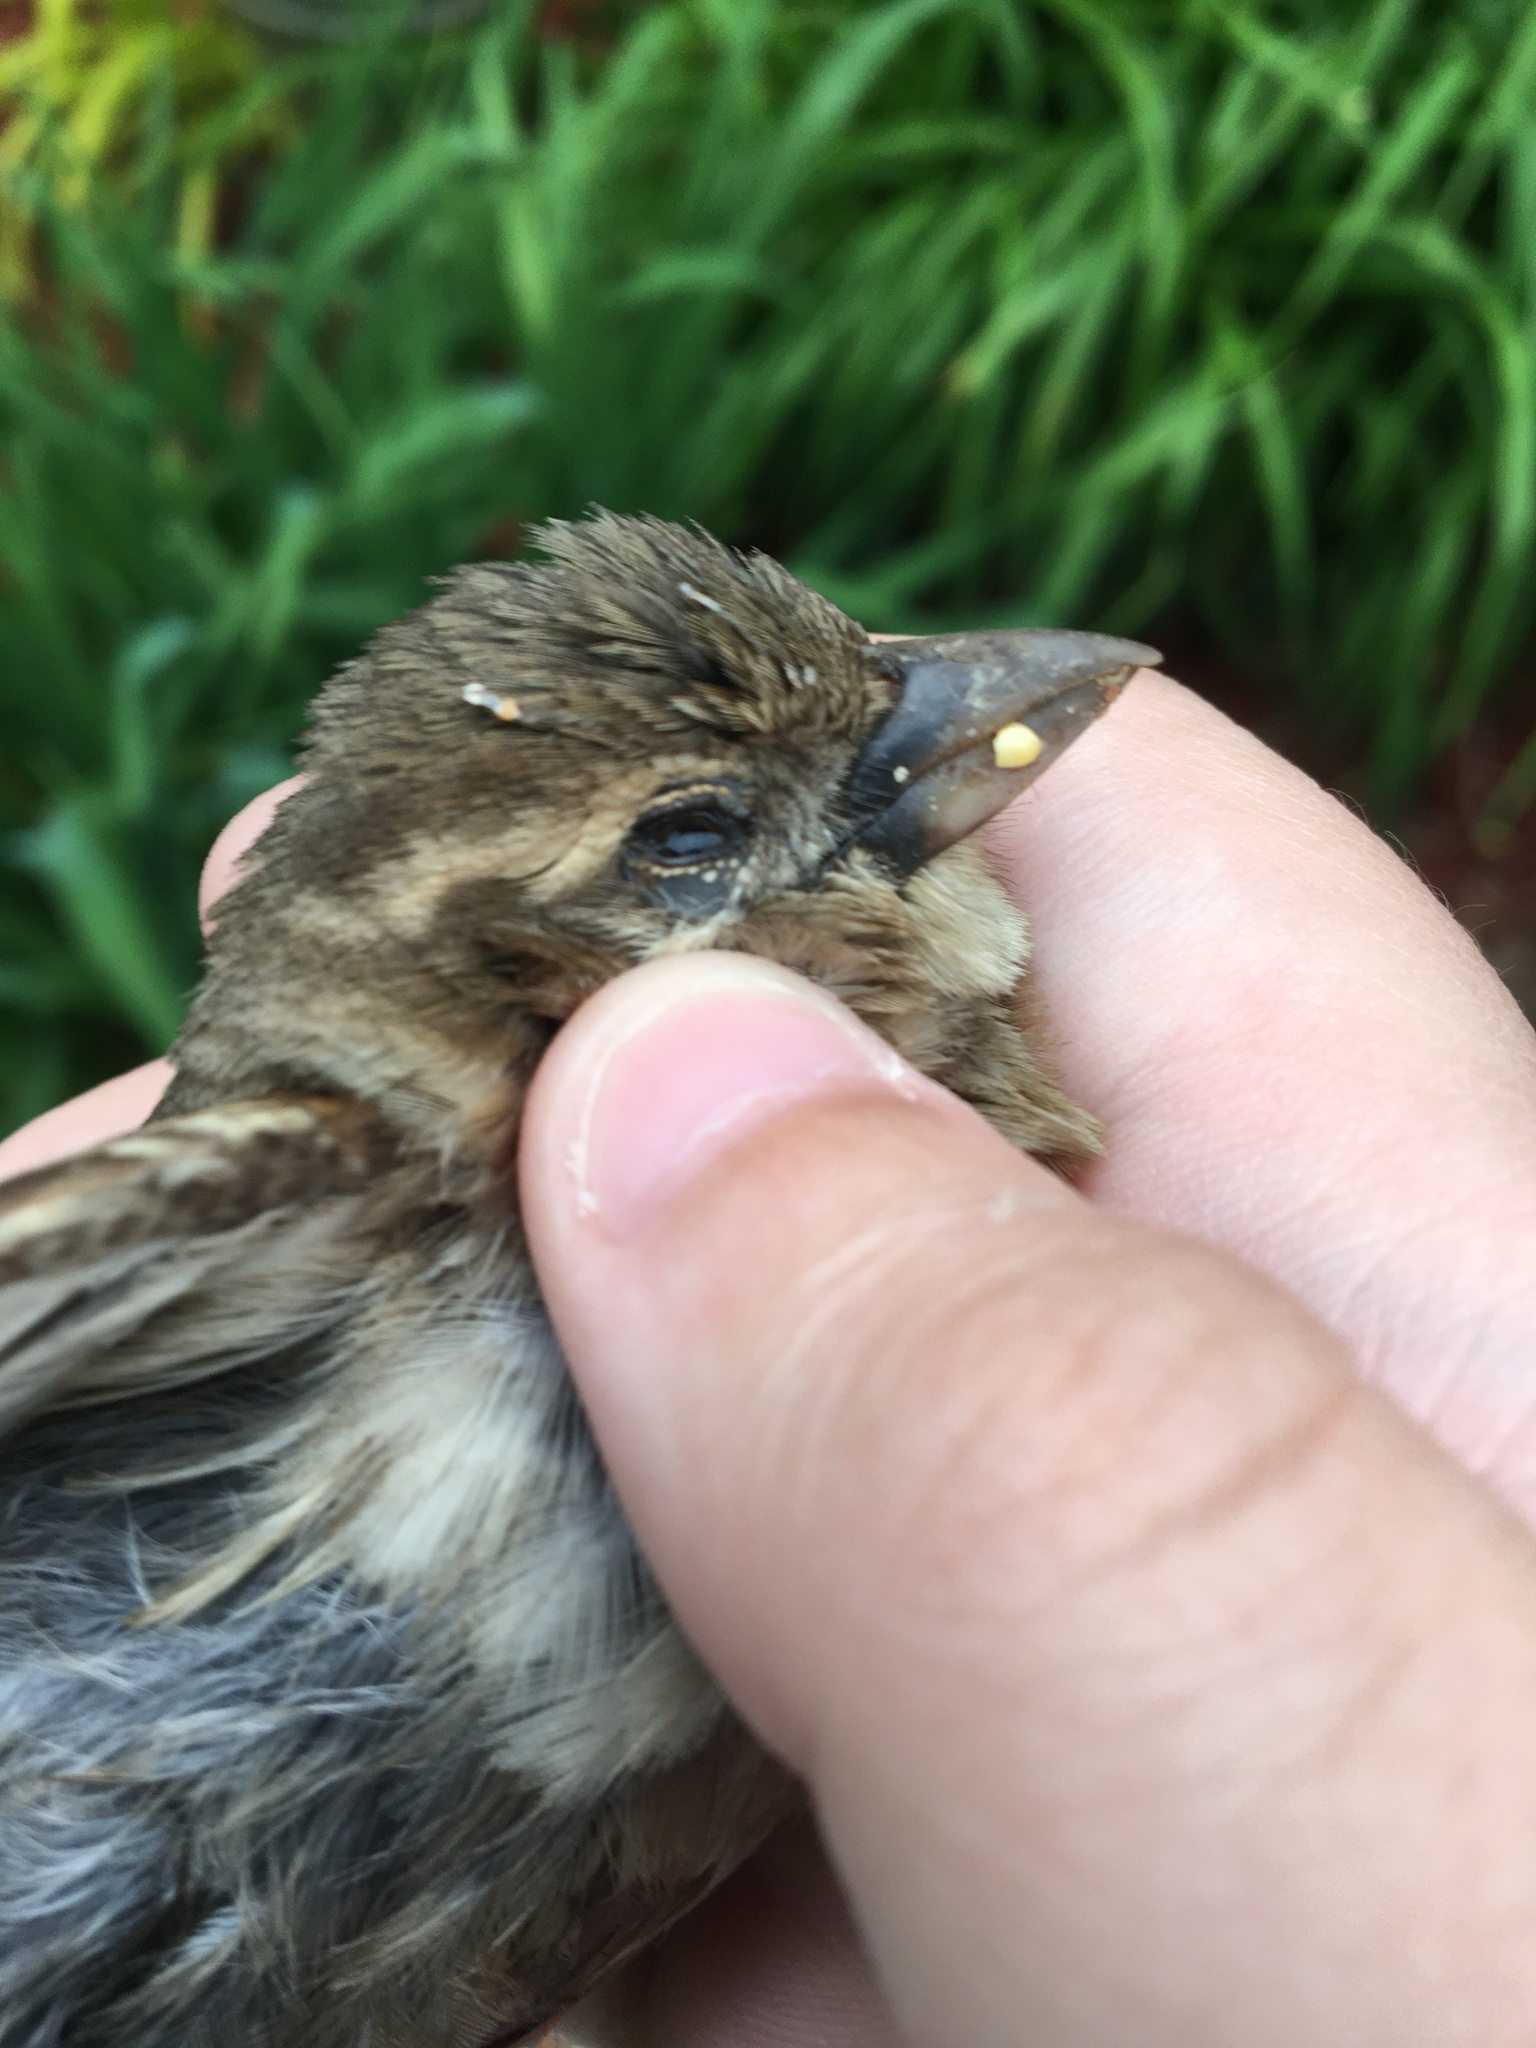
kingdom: Animalia
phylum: Chordata
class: Aves
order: Passeriformes
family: Passeridae
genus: Passer
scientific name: Passer domesticus
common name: House sparrow
